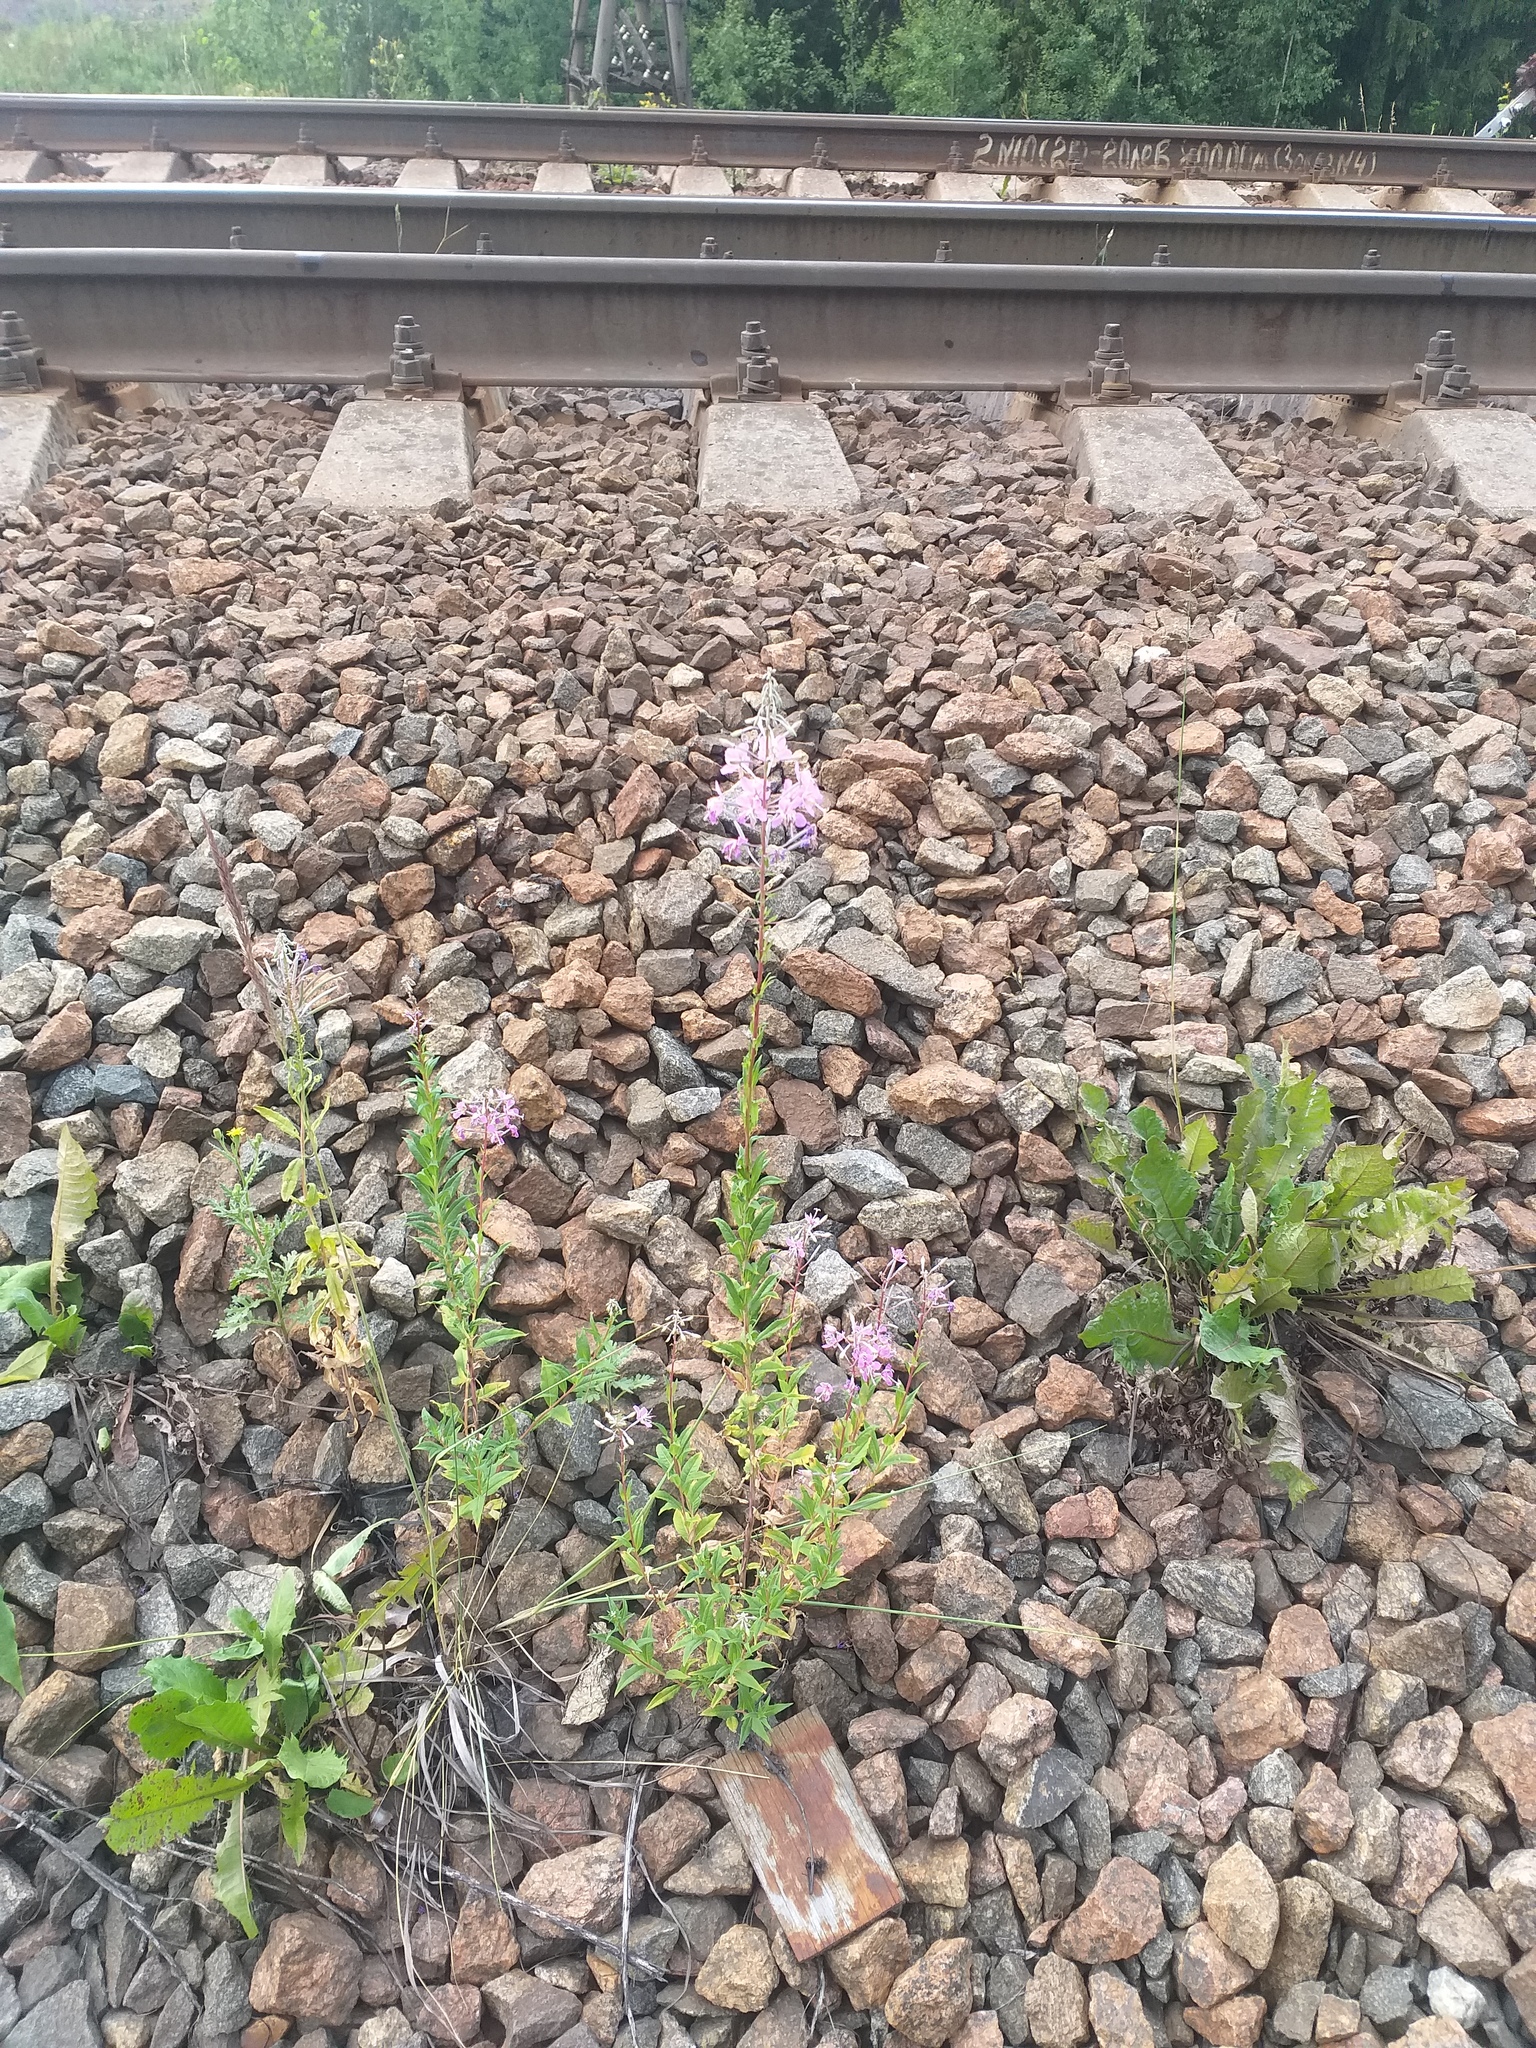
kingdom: Plantae
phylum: Tracheophyta
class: Magnoliopsida
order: Myrtales
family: Onagraceae
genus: Chamaenerion
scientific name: Chamaenerion angustifolium
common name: Fireweed
